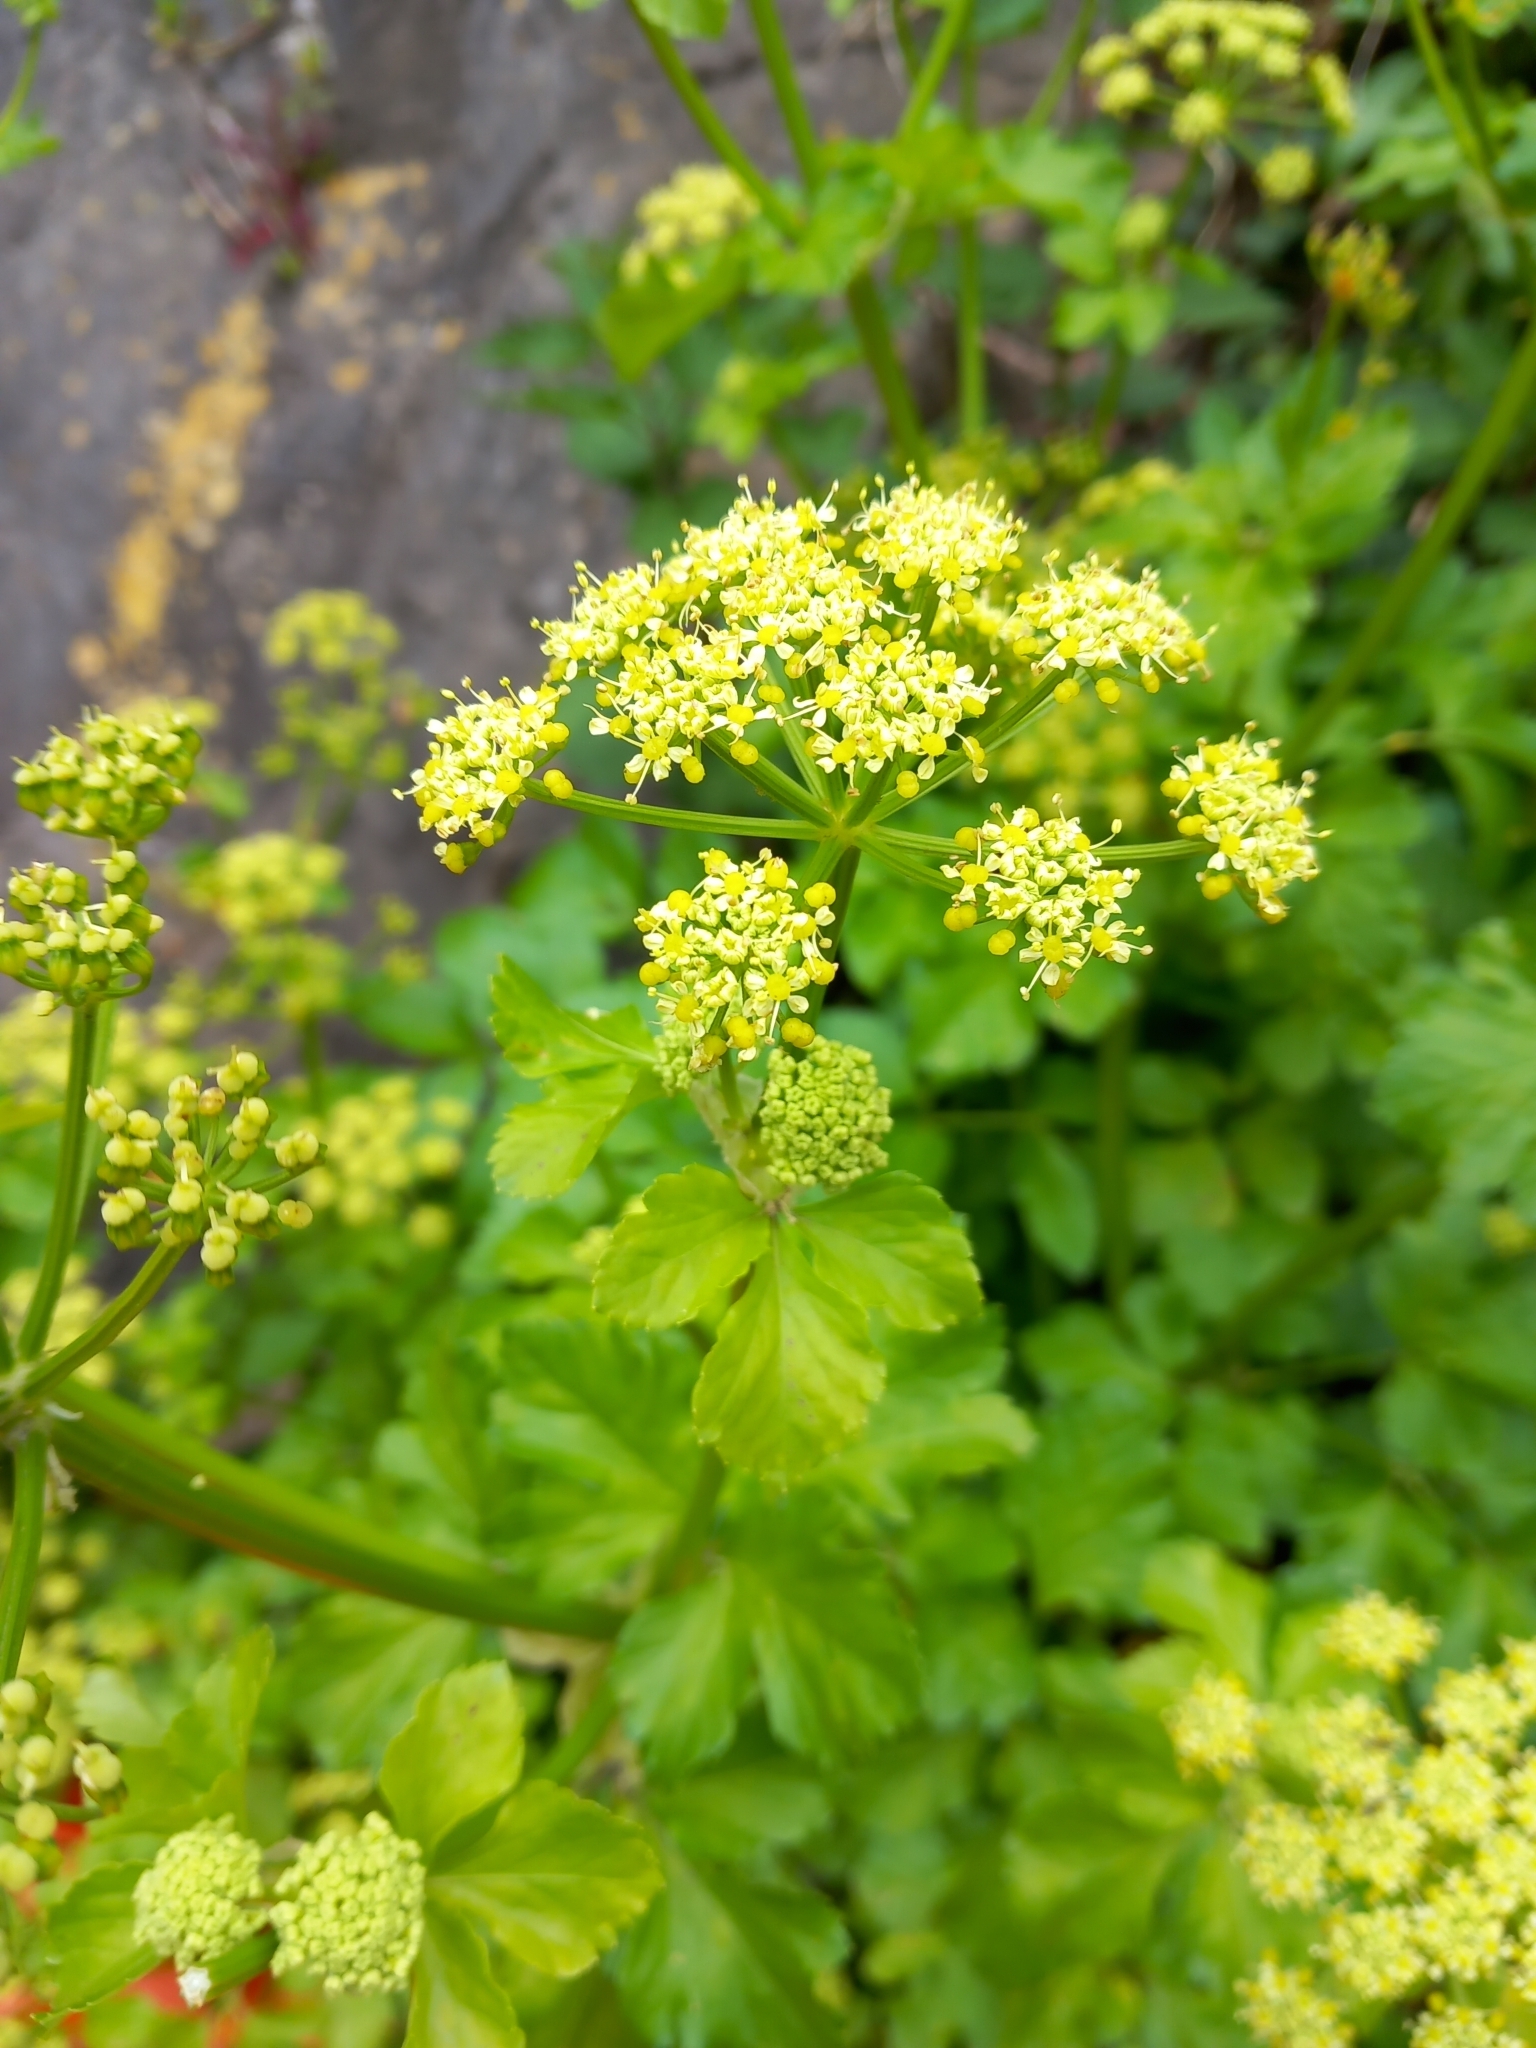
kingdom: Plantae
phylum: Tracheophyta
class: Magnoliopsida
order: Apiales
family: Apiaceae
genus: Smyrnium
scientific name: Smyrnium olusatrum
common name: Alexanders
